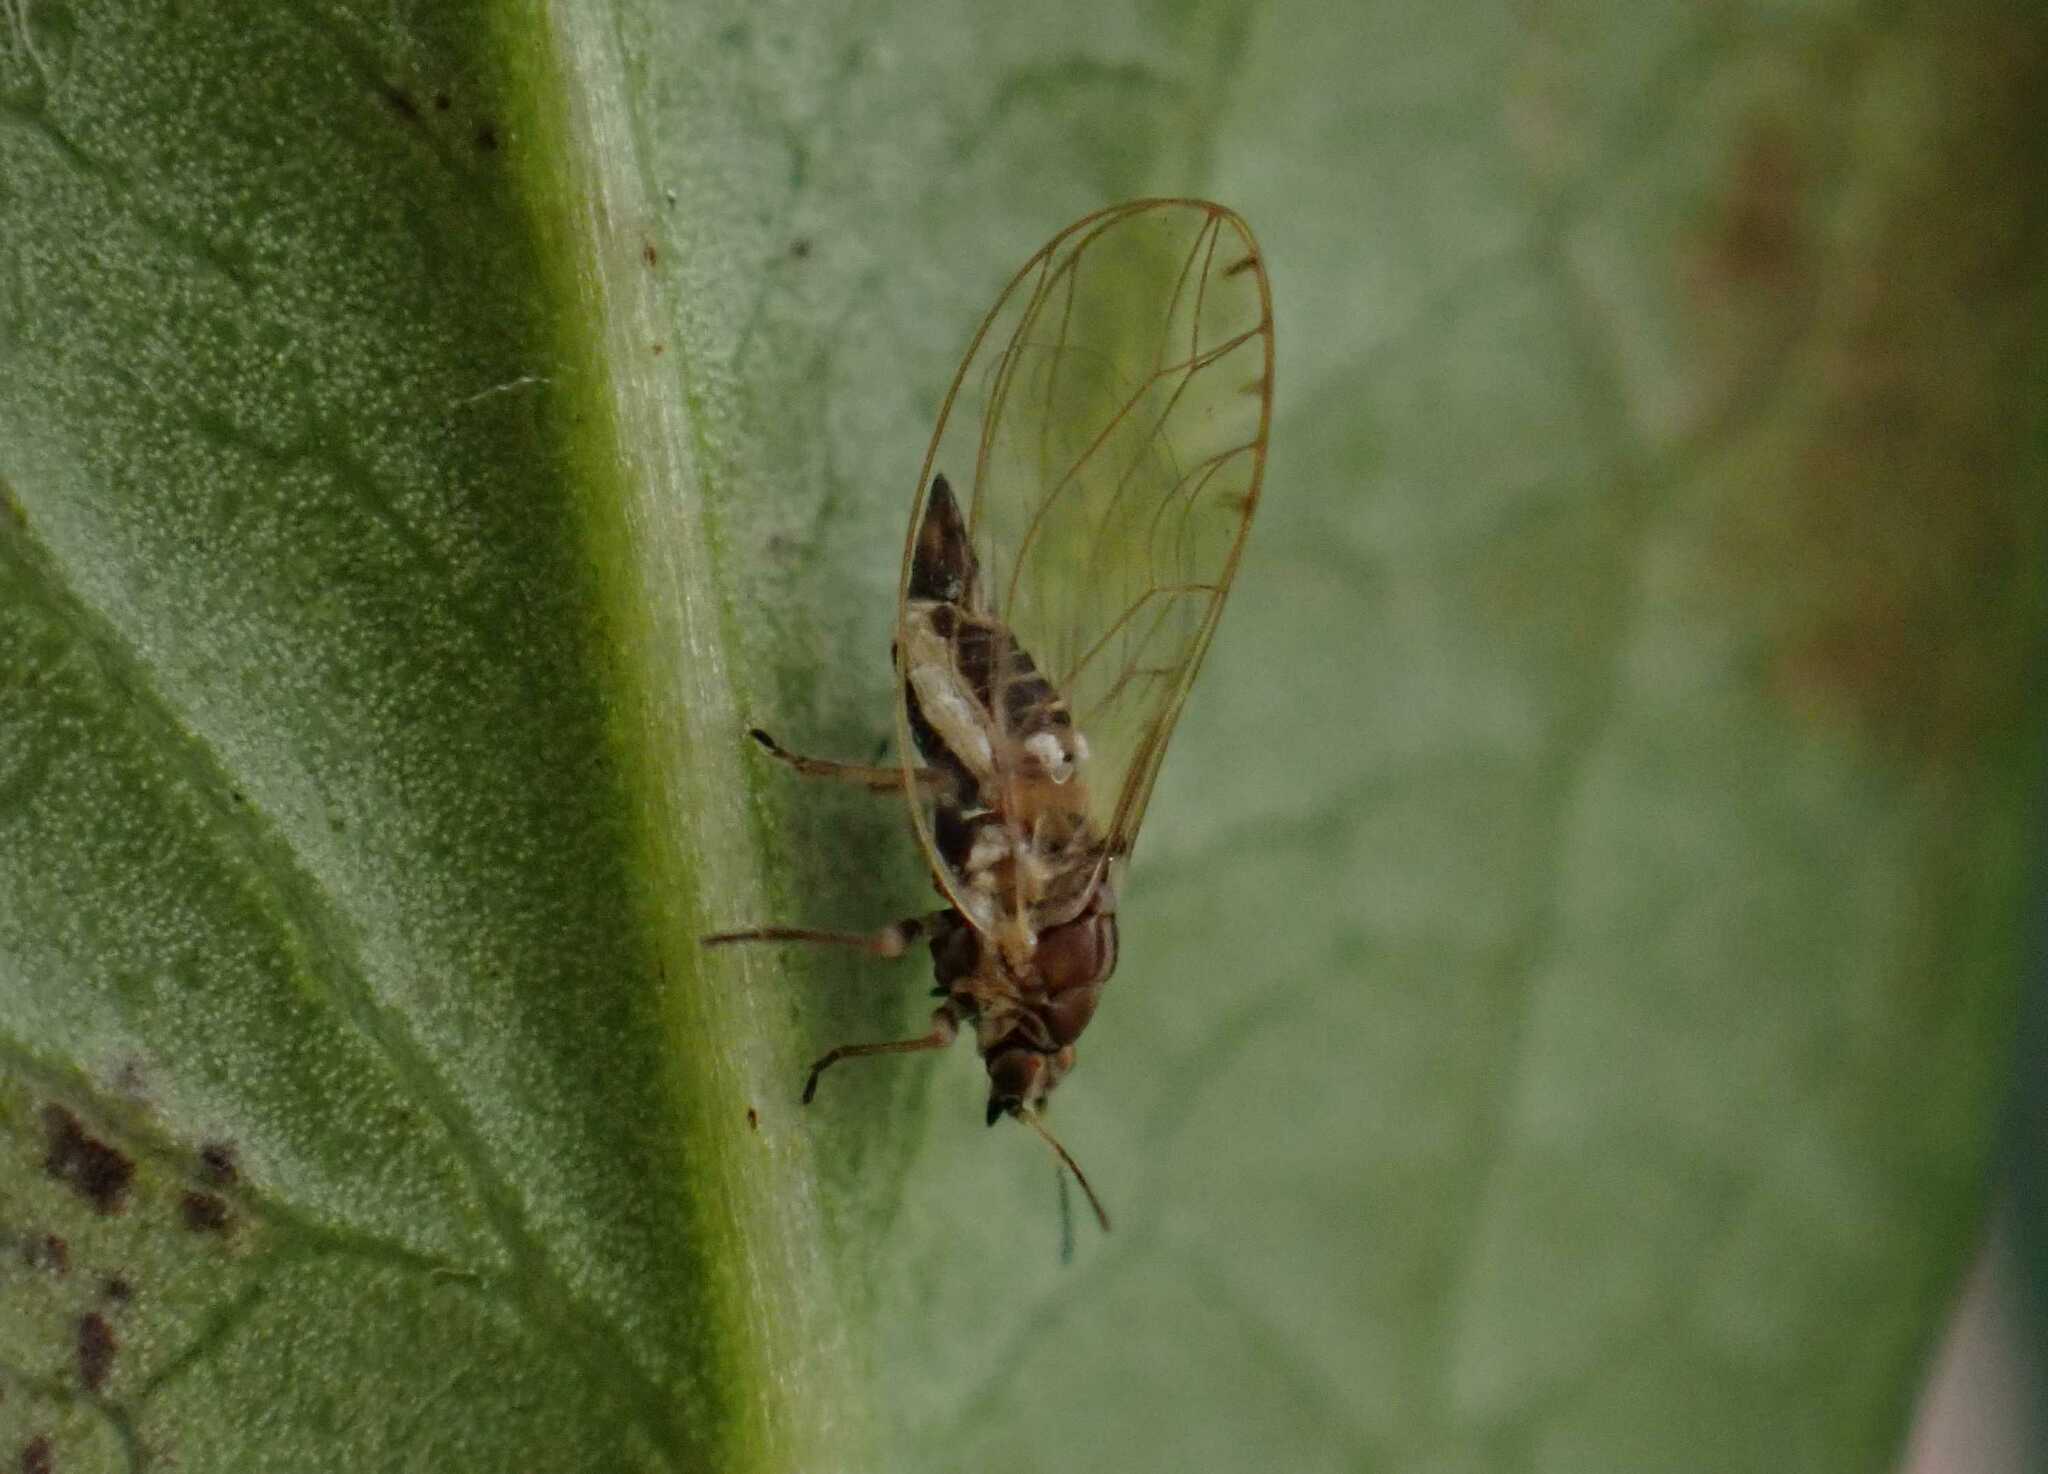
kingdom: Animalia
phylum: Arthropoda
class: Insecta
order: Hemiptera
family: Triozidae
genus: Trioza
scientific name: Trioza urticae
